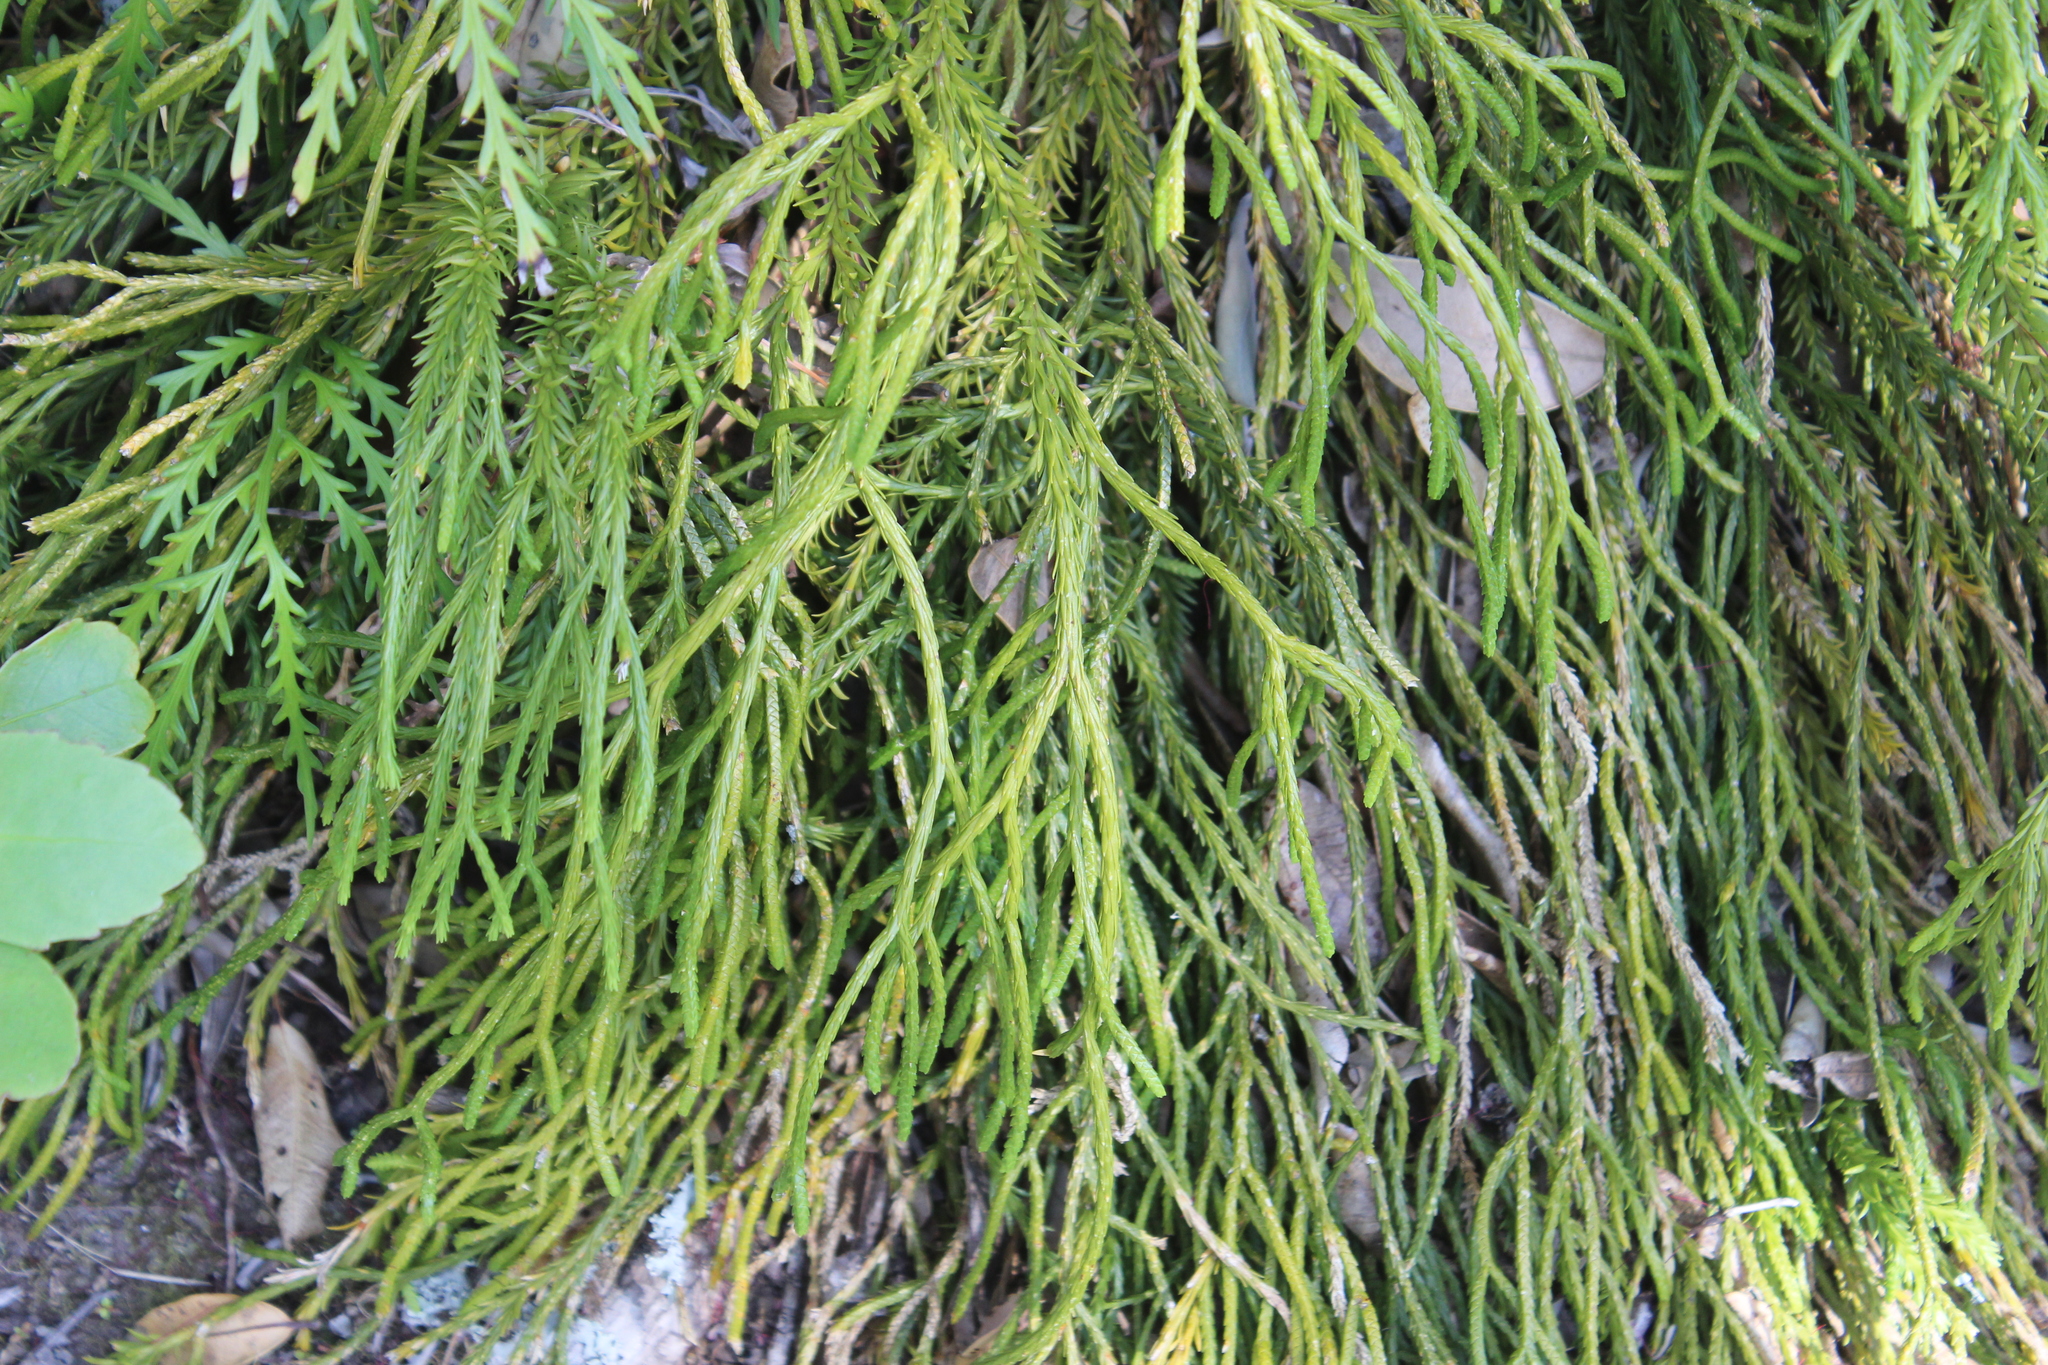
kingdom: Plantae
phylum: Tracheophyta
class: Lycopodiopsida
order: Lycopodiales
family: Lycopodiaceae
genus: Phlegmariurus
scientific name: Phlegmariurus billardierei
